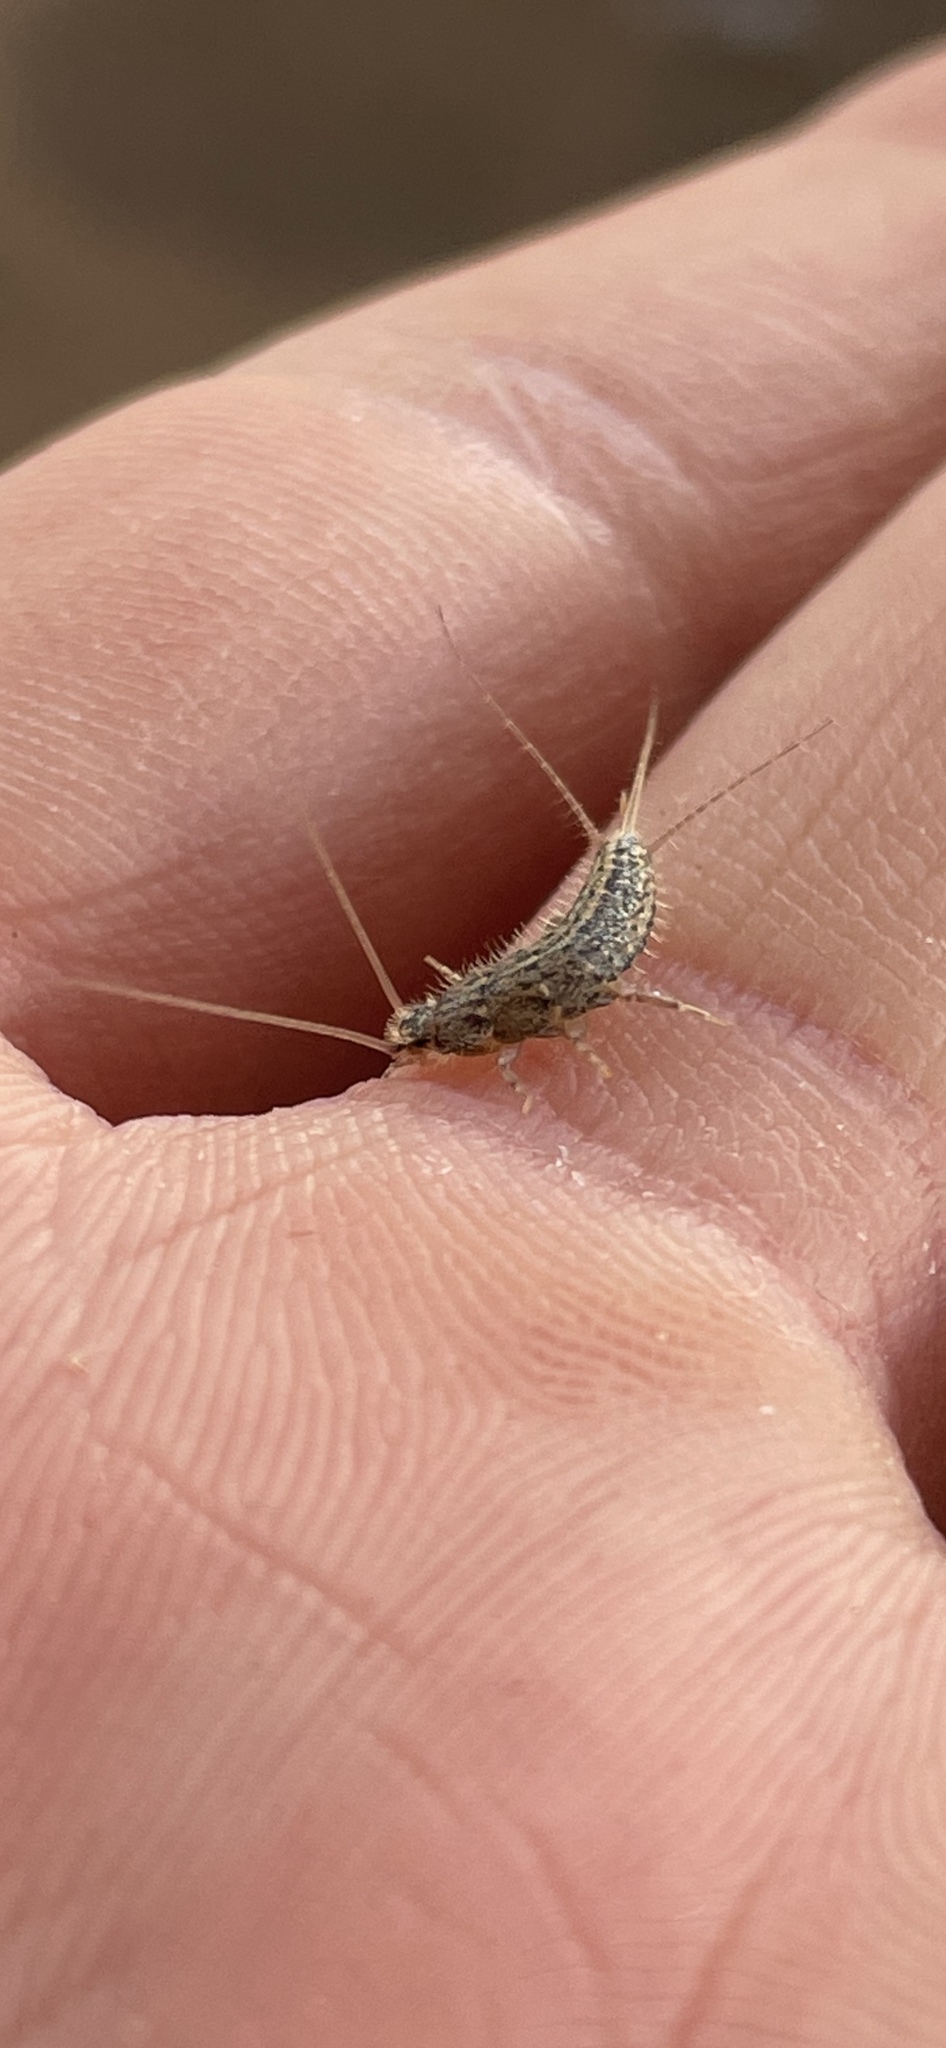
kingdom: Animalia
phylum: Arthropoda
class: Insecta
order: Zygentoma
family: Lepismatidae
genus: Ctenolepisma
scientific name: Ctenolepisma lineata
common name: Four-lined silverfish
